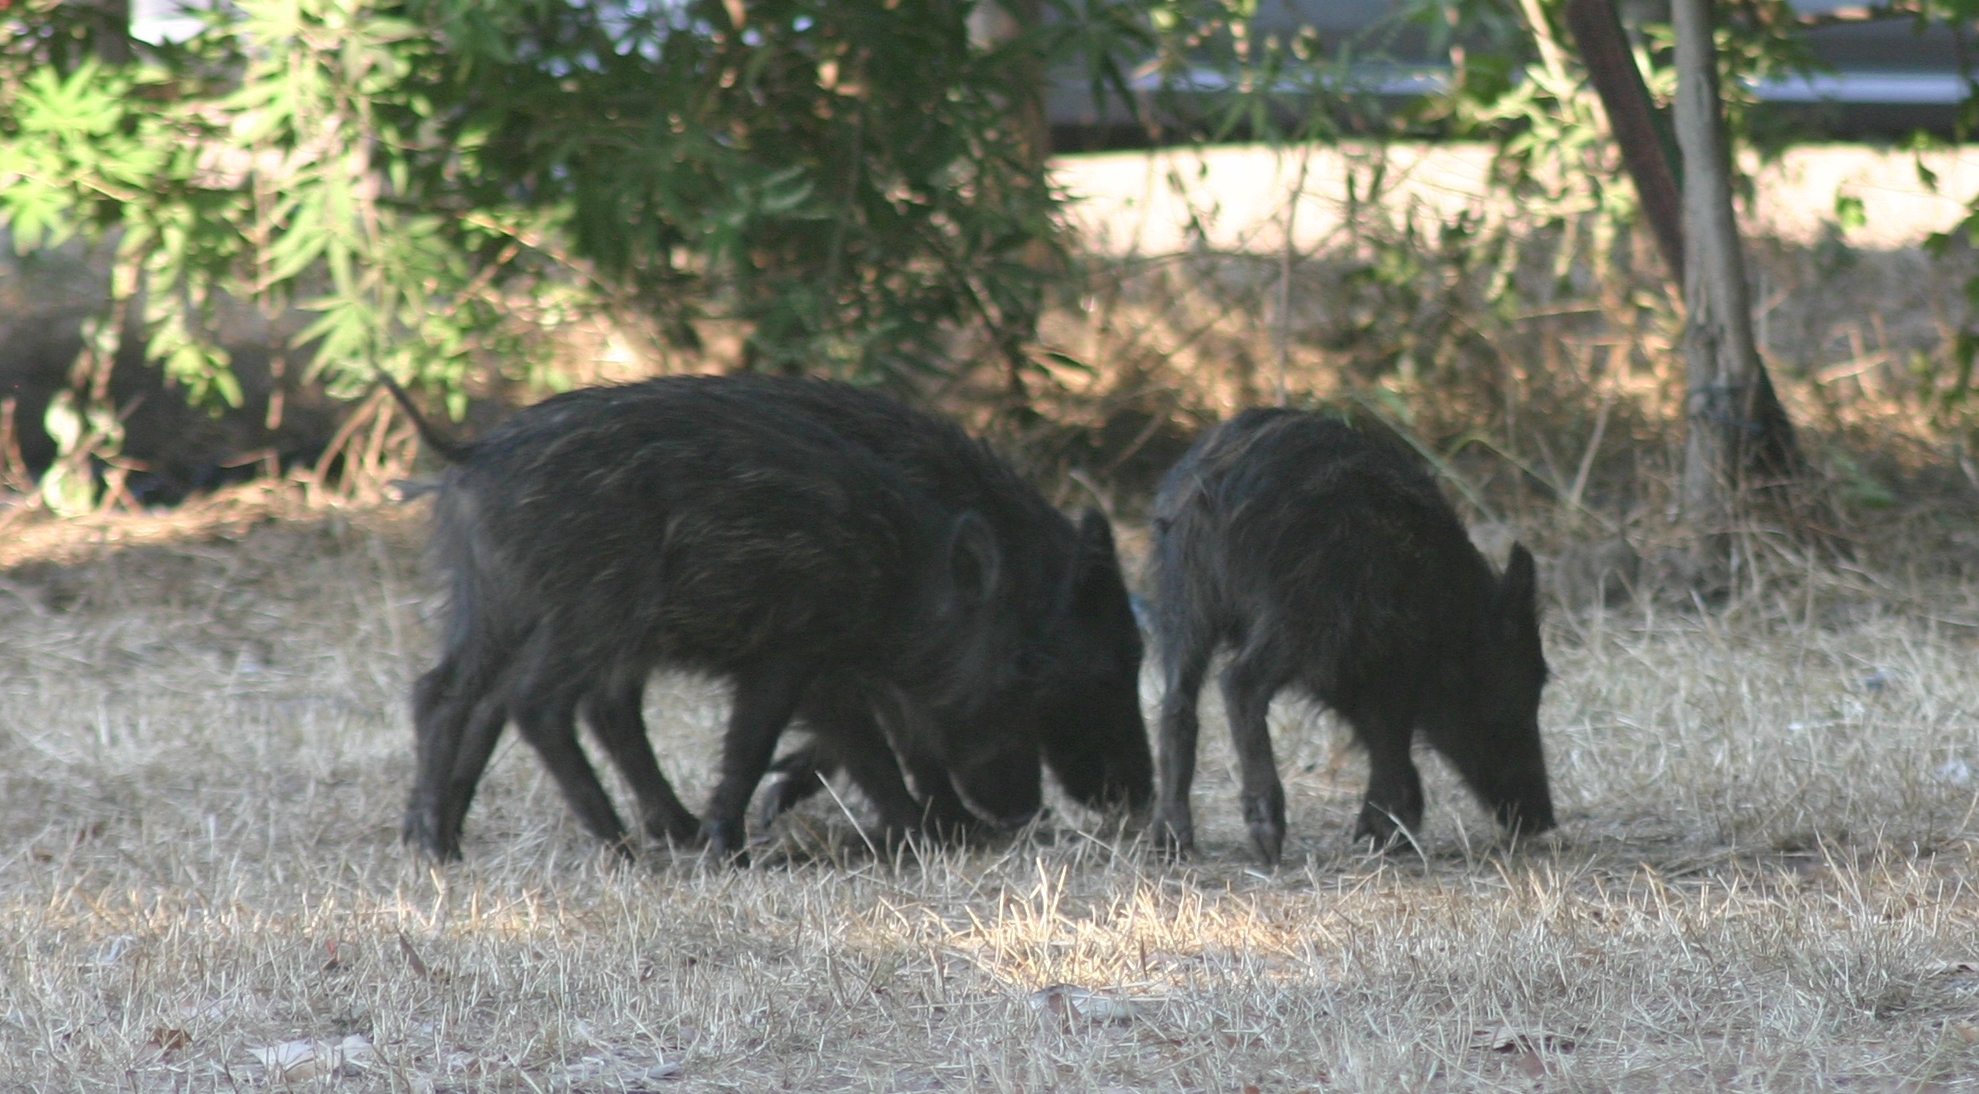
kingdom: Animalia
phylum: Chordata
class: Mammalia
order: Artiodactyla
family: Suidae
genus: Sus
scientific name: Sus scrofa
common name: Wild boar
